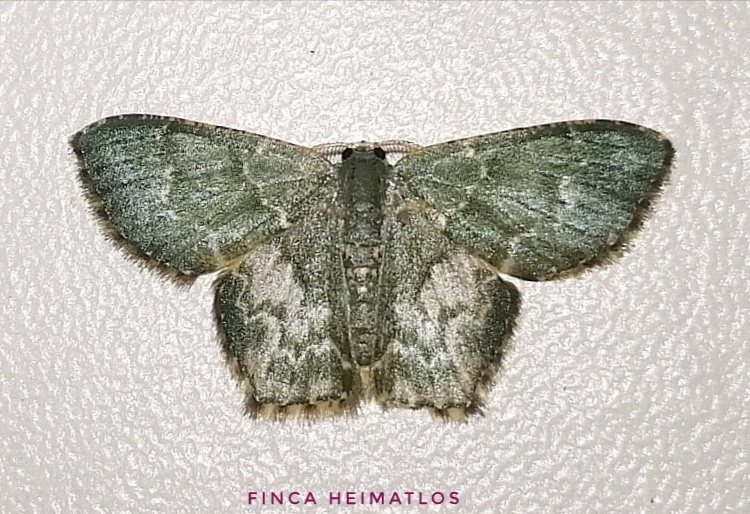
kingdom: Animalia
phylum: Arthropoda
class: Insecta
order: Lepidoptera
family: Geometridae
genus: Chloropteryx
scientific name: Chloropteryx dealbata
